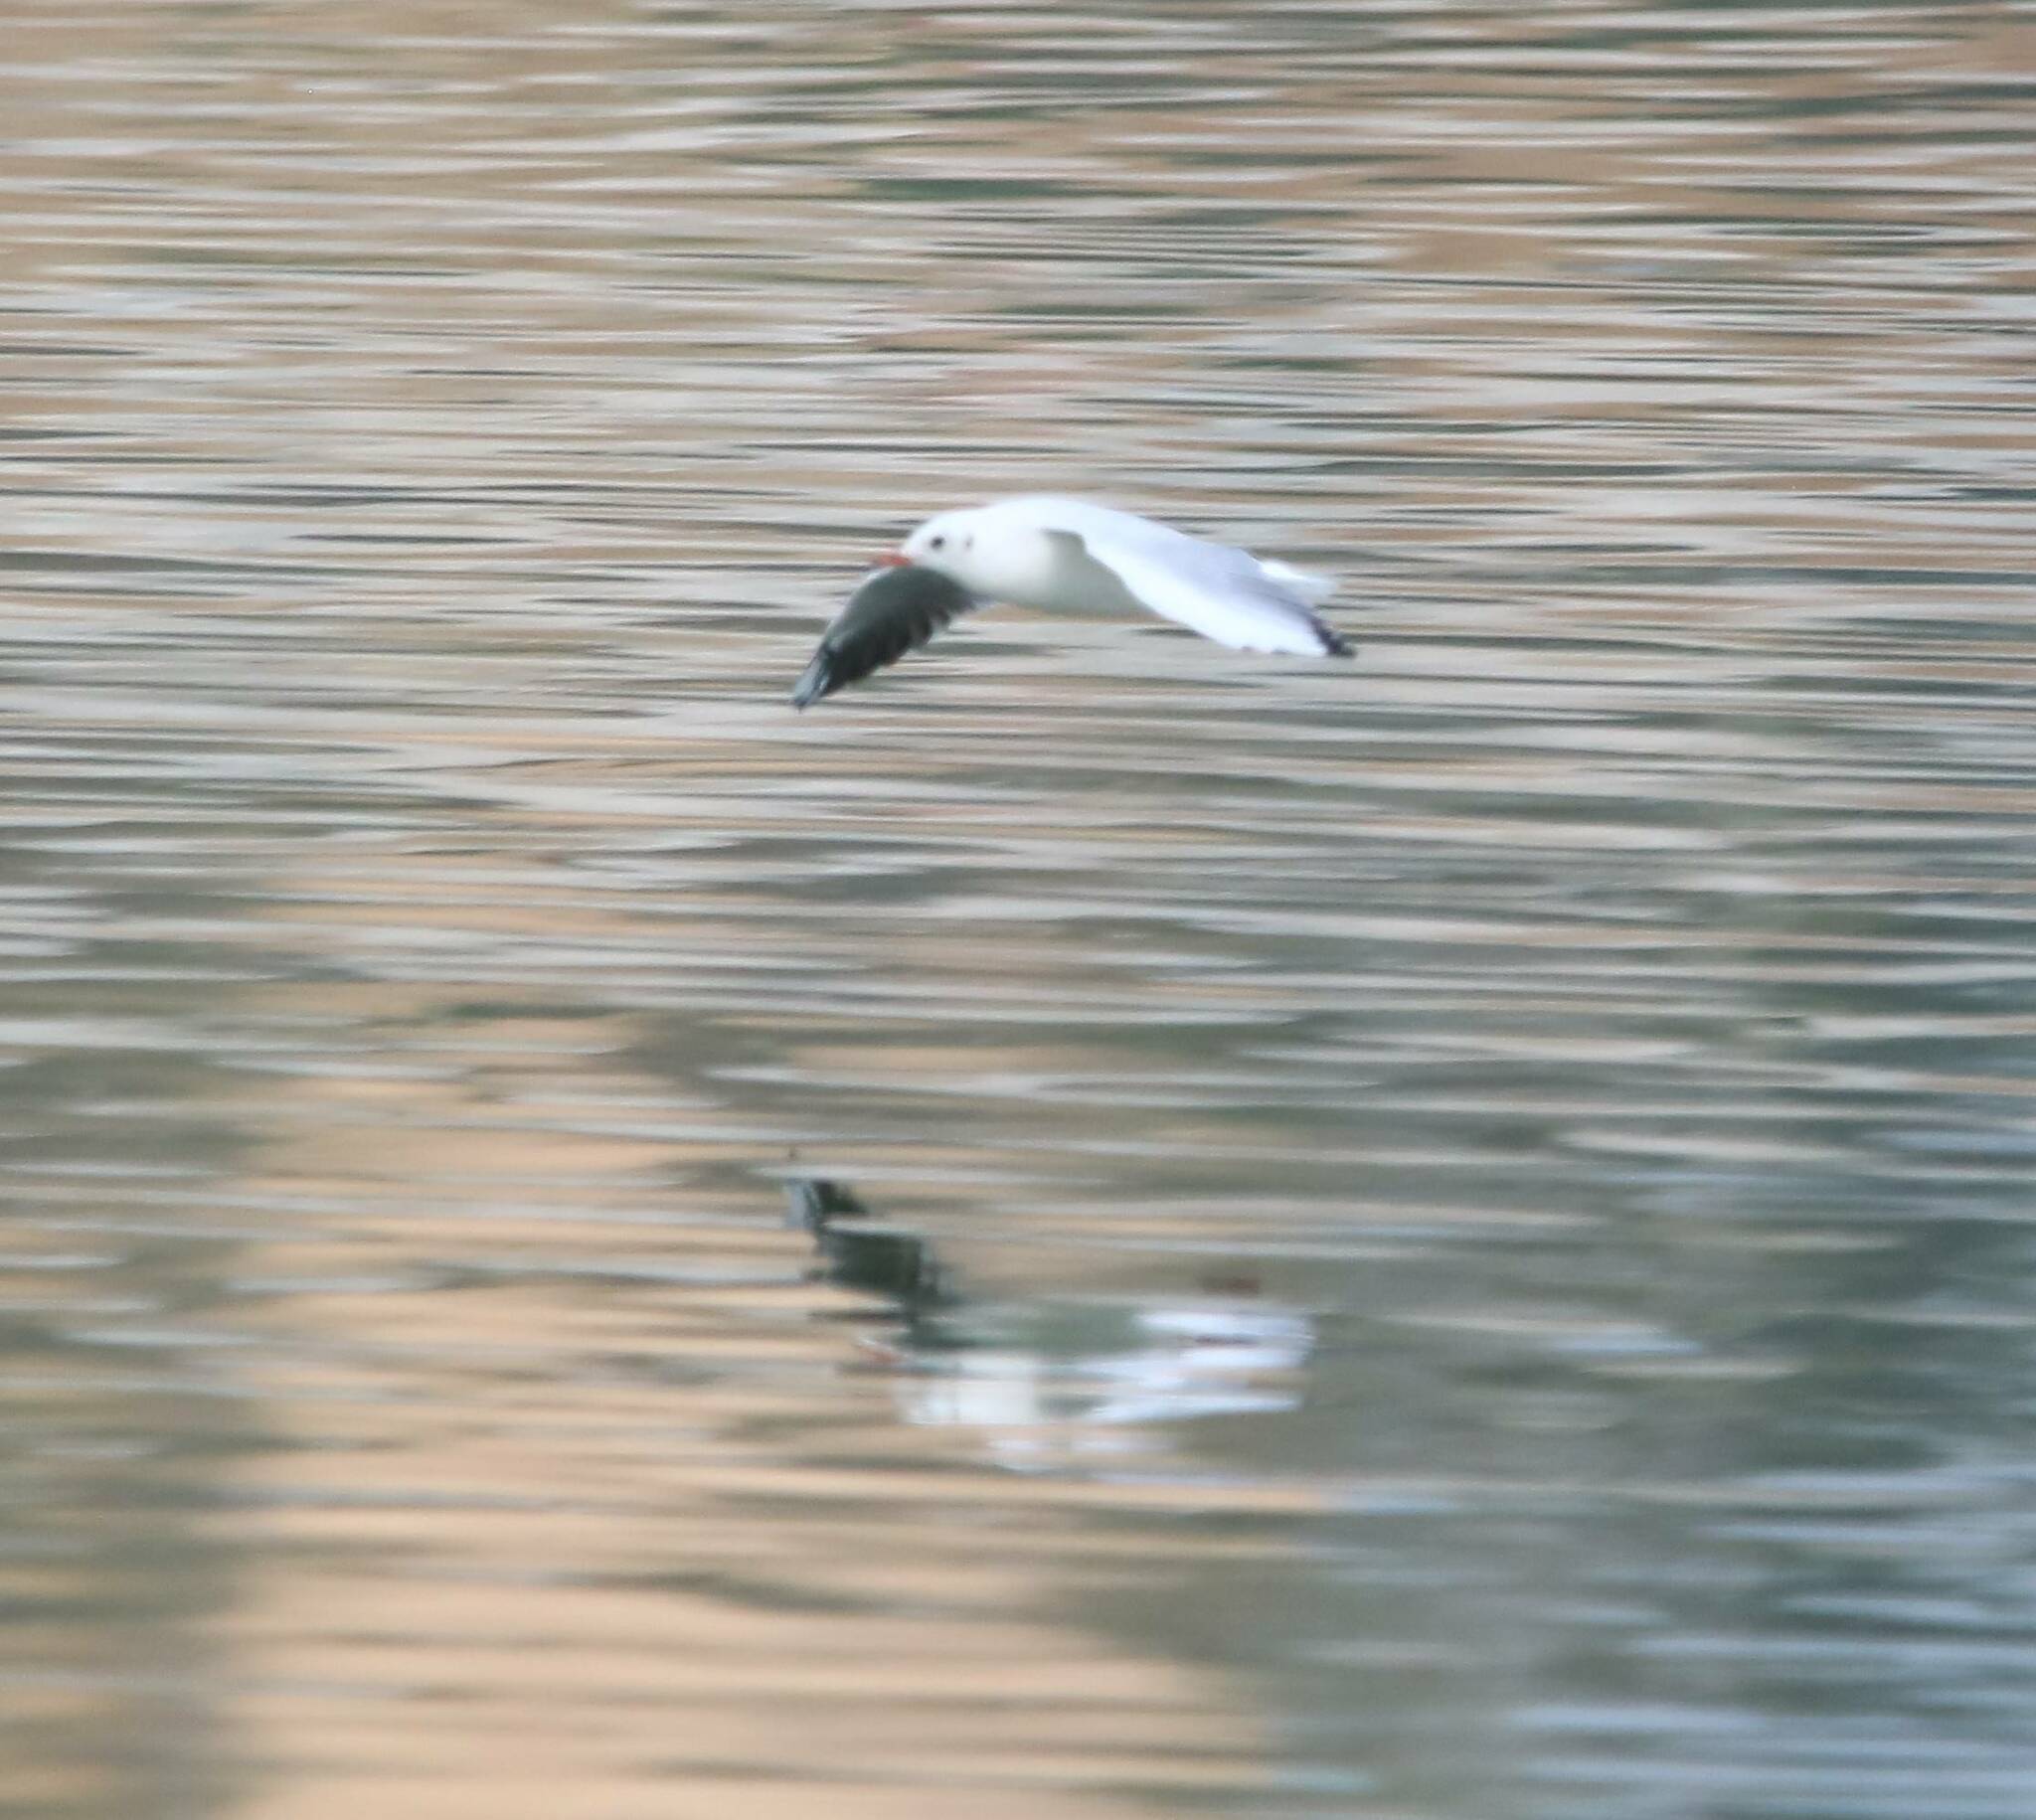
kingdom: Animalia
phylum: Chordata
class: Aves
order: Charadriiformes
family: Laridae
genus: Chroicocephalus
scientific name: Chroicocephalus ridibundus
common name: Black-headed gull
